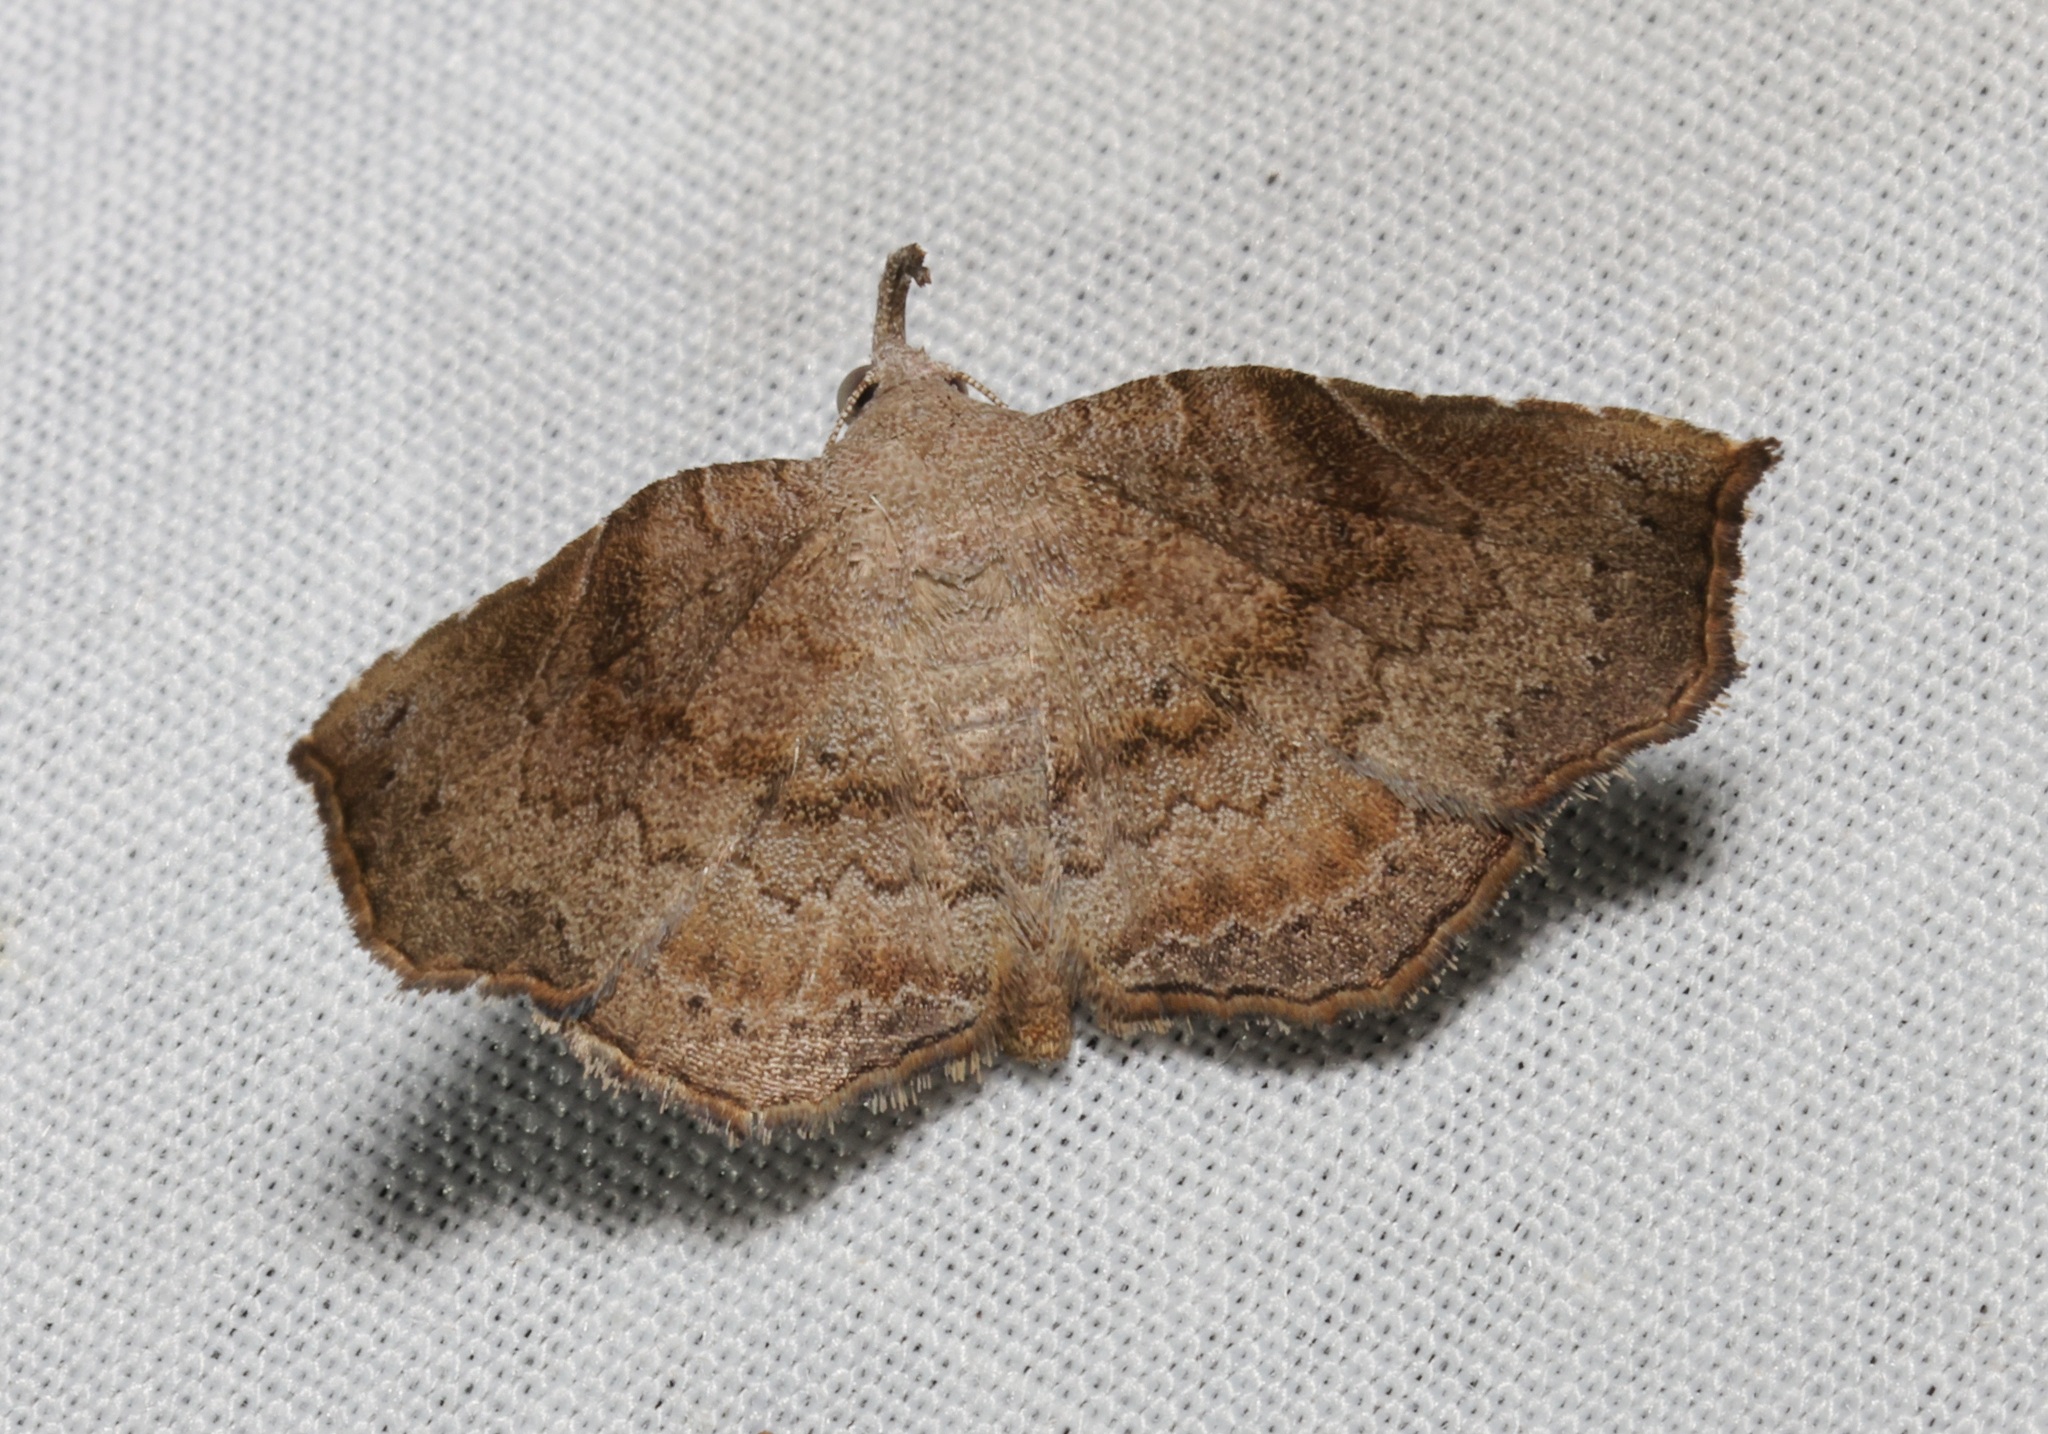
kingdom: Animalia
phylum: Arthropoda
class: Insecta
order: Lepidoptera
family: Erebidae
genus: Egnasia
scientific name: Egnasia seclusalis
